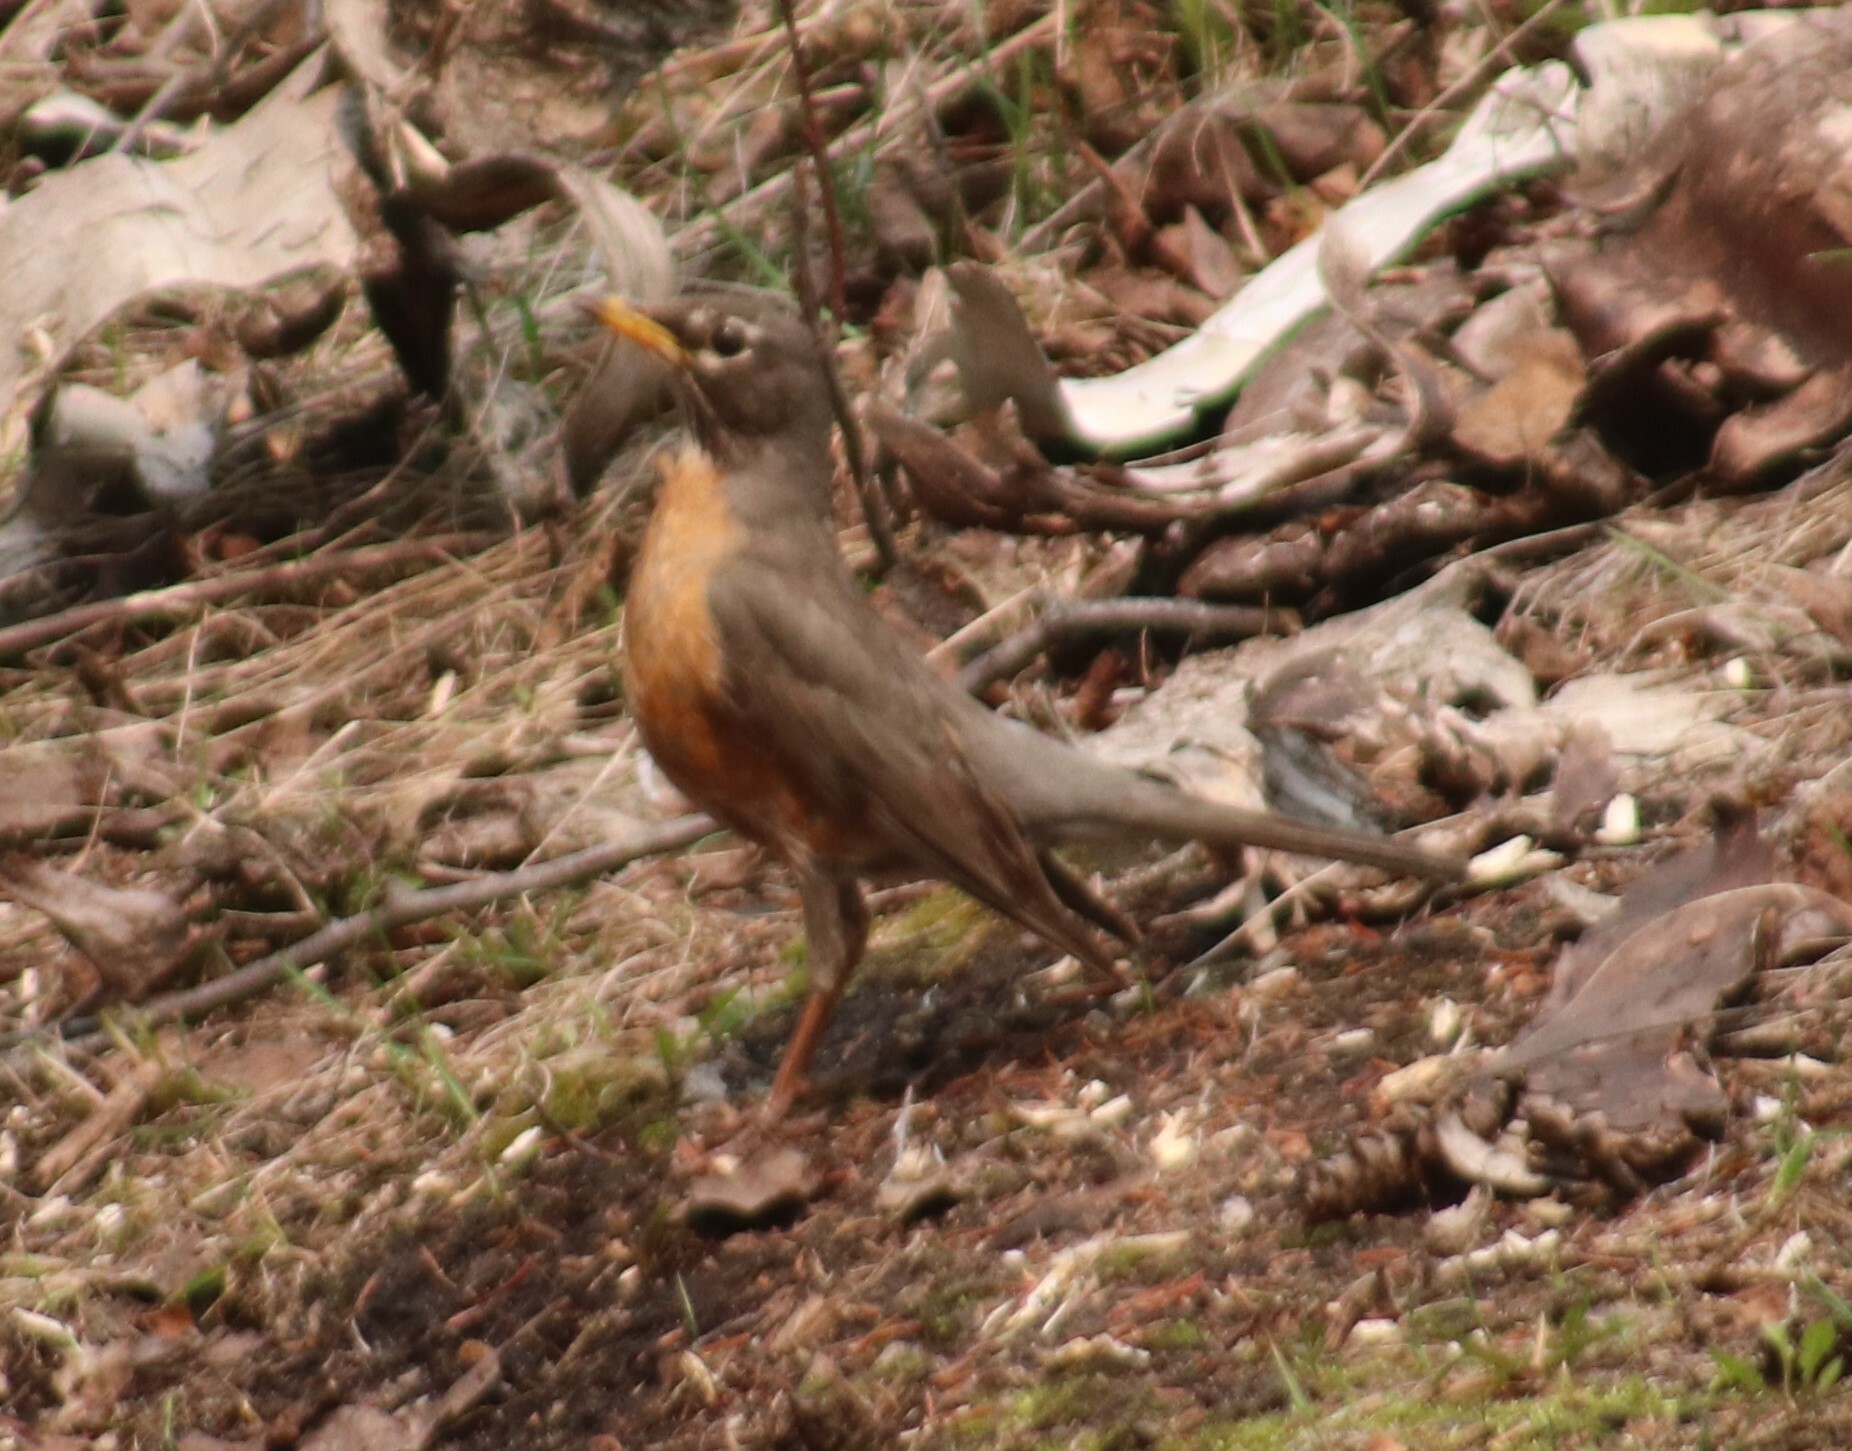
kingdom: Animalia
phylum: Chordata
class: Aves
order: Passeriformes
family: Turdidae
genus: Turdus
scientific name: Turdus migratorius
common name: American robin
